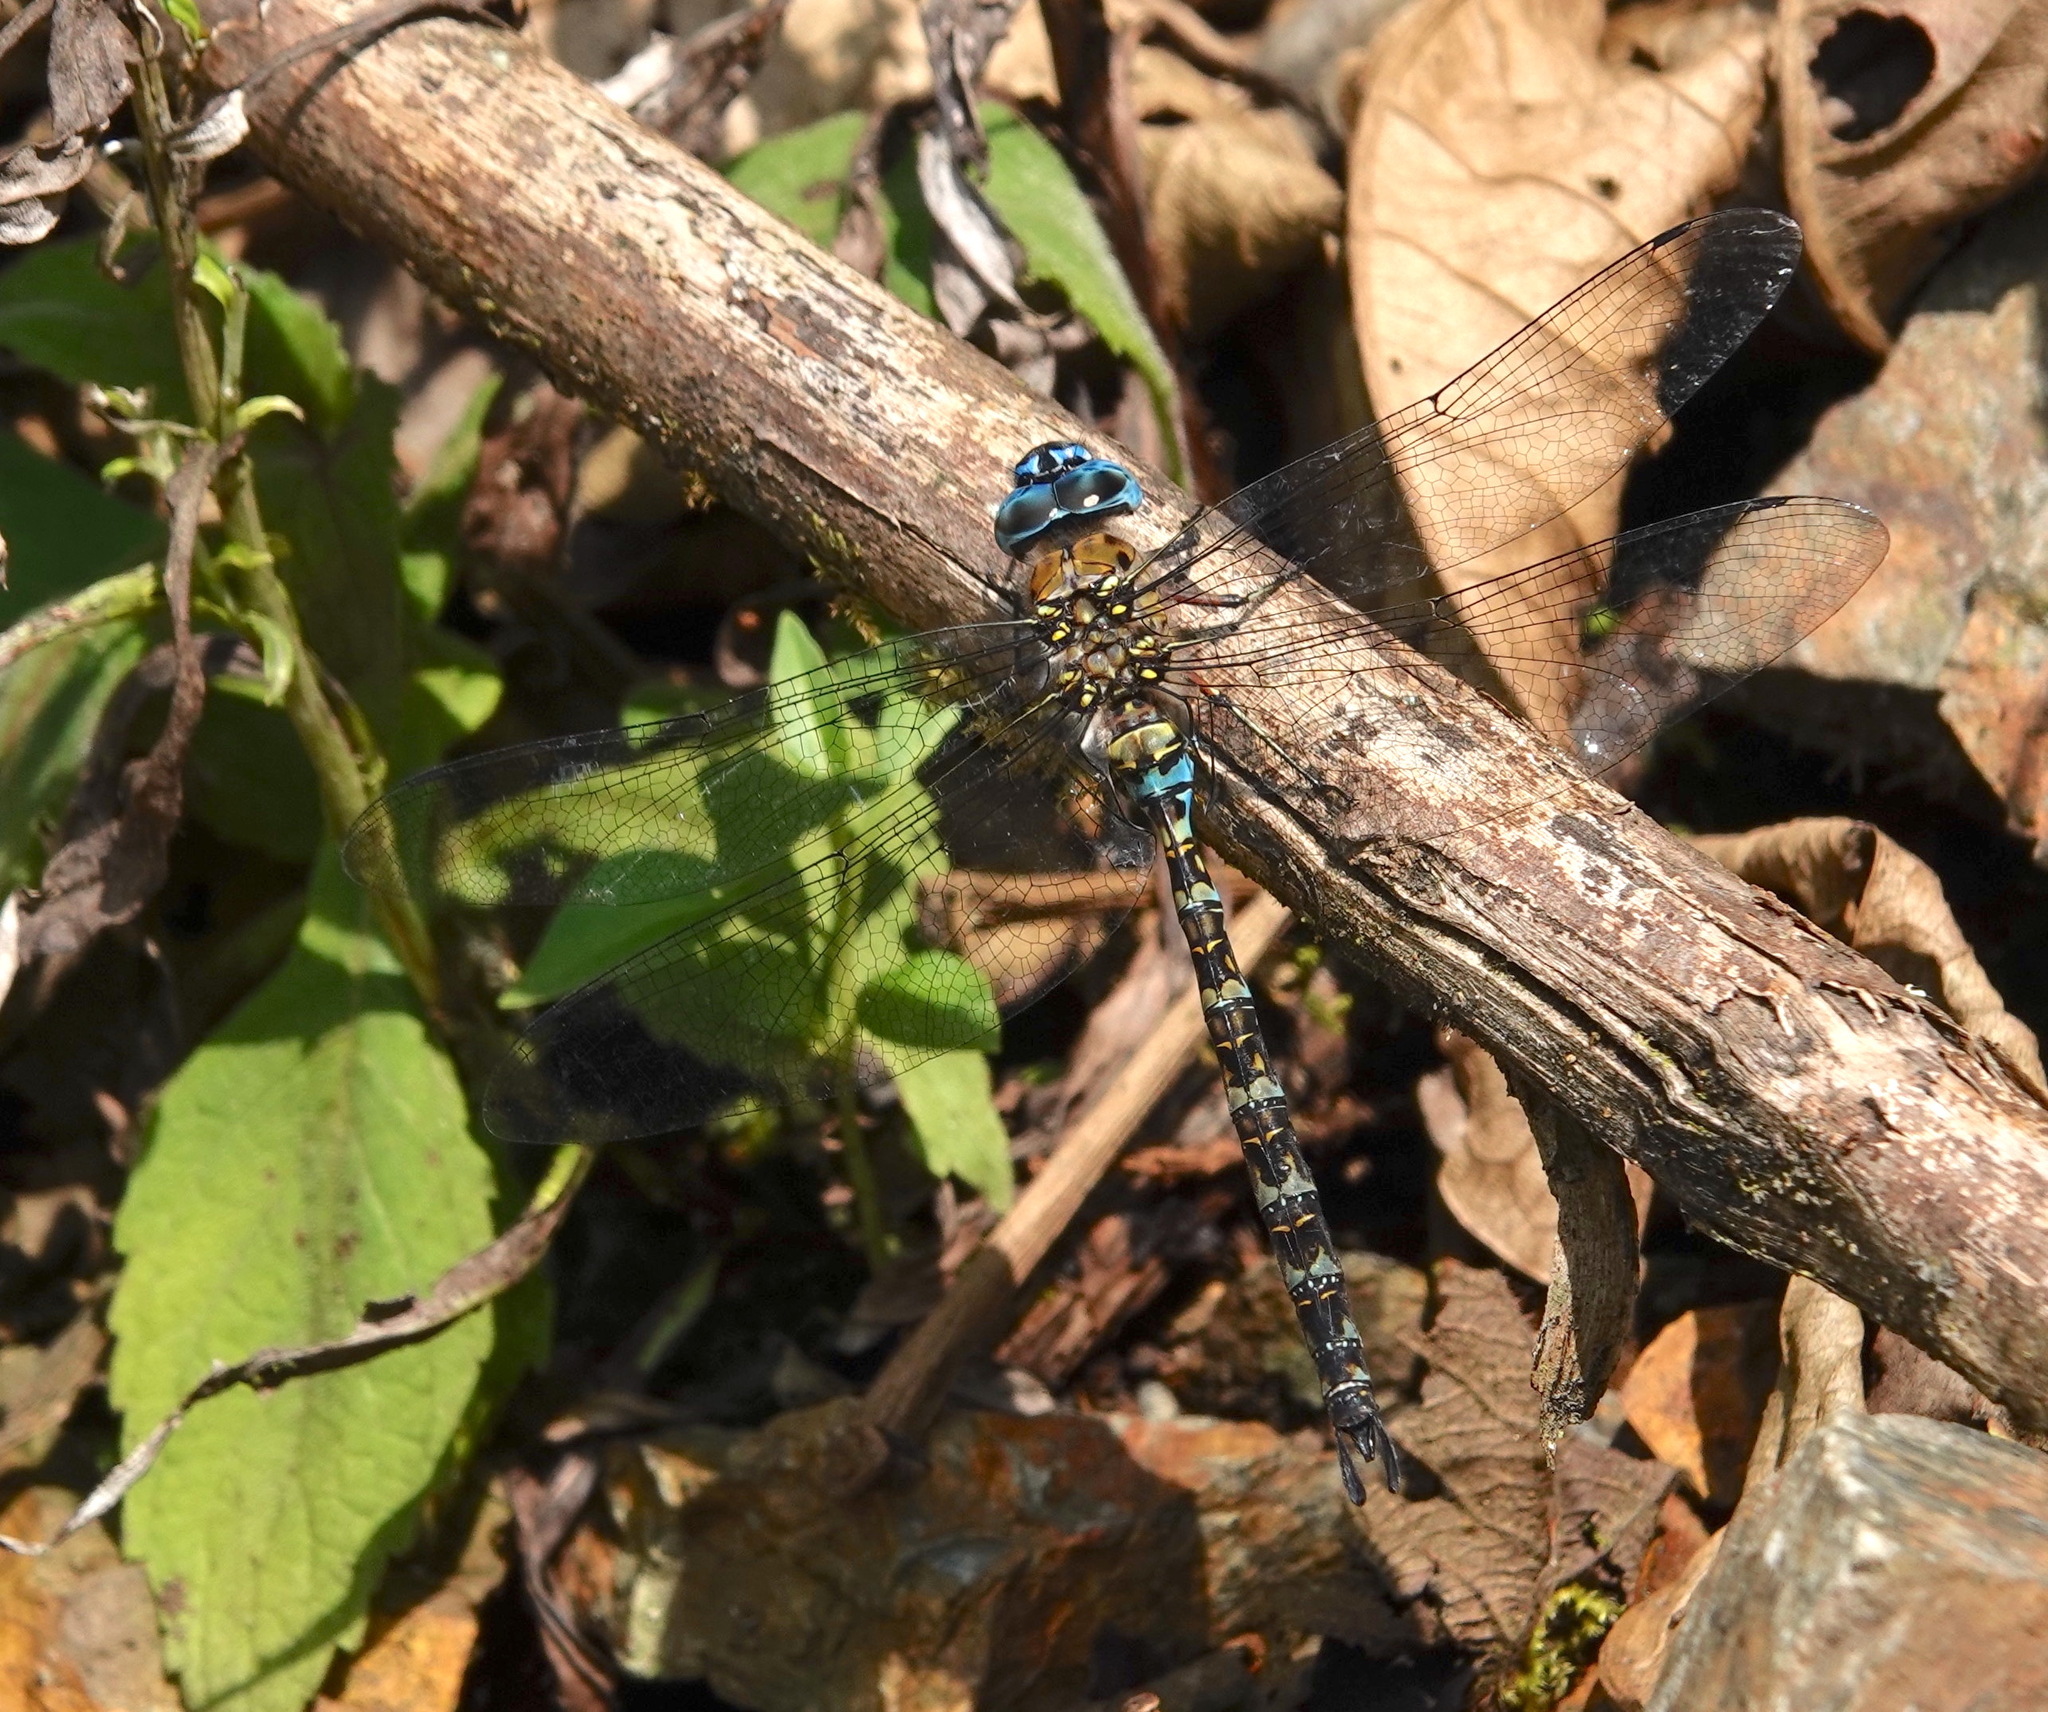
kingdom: Animalia
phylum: Arthropoda
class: Insecta
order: Odonata
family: Aeshnidae
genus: Rhionaeschna
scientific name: Rhionaeschna obscura
